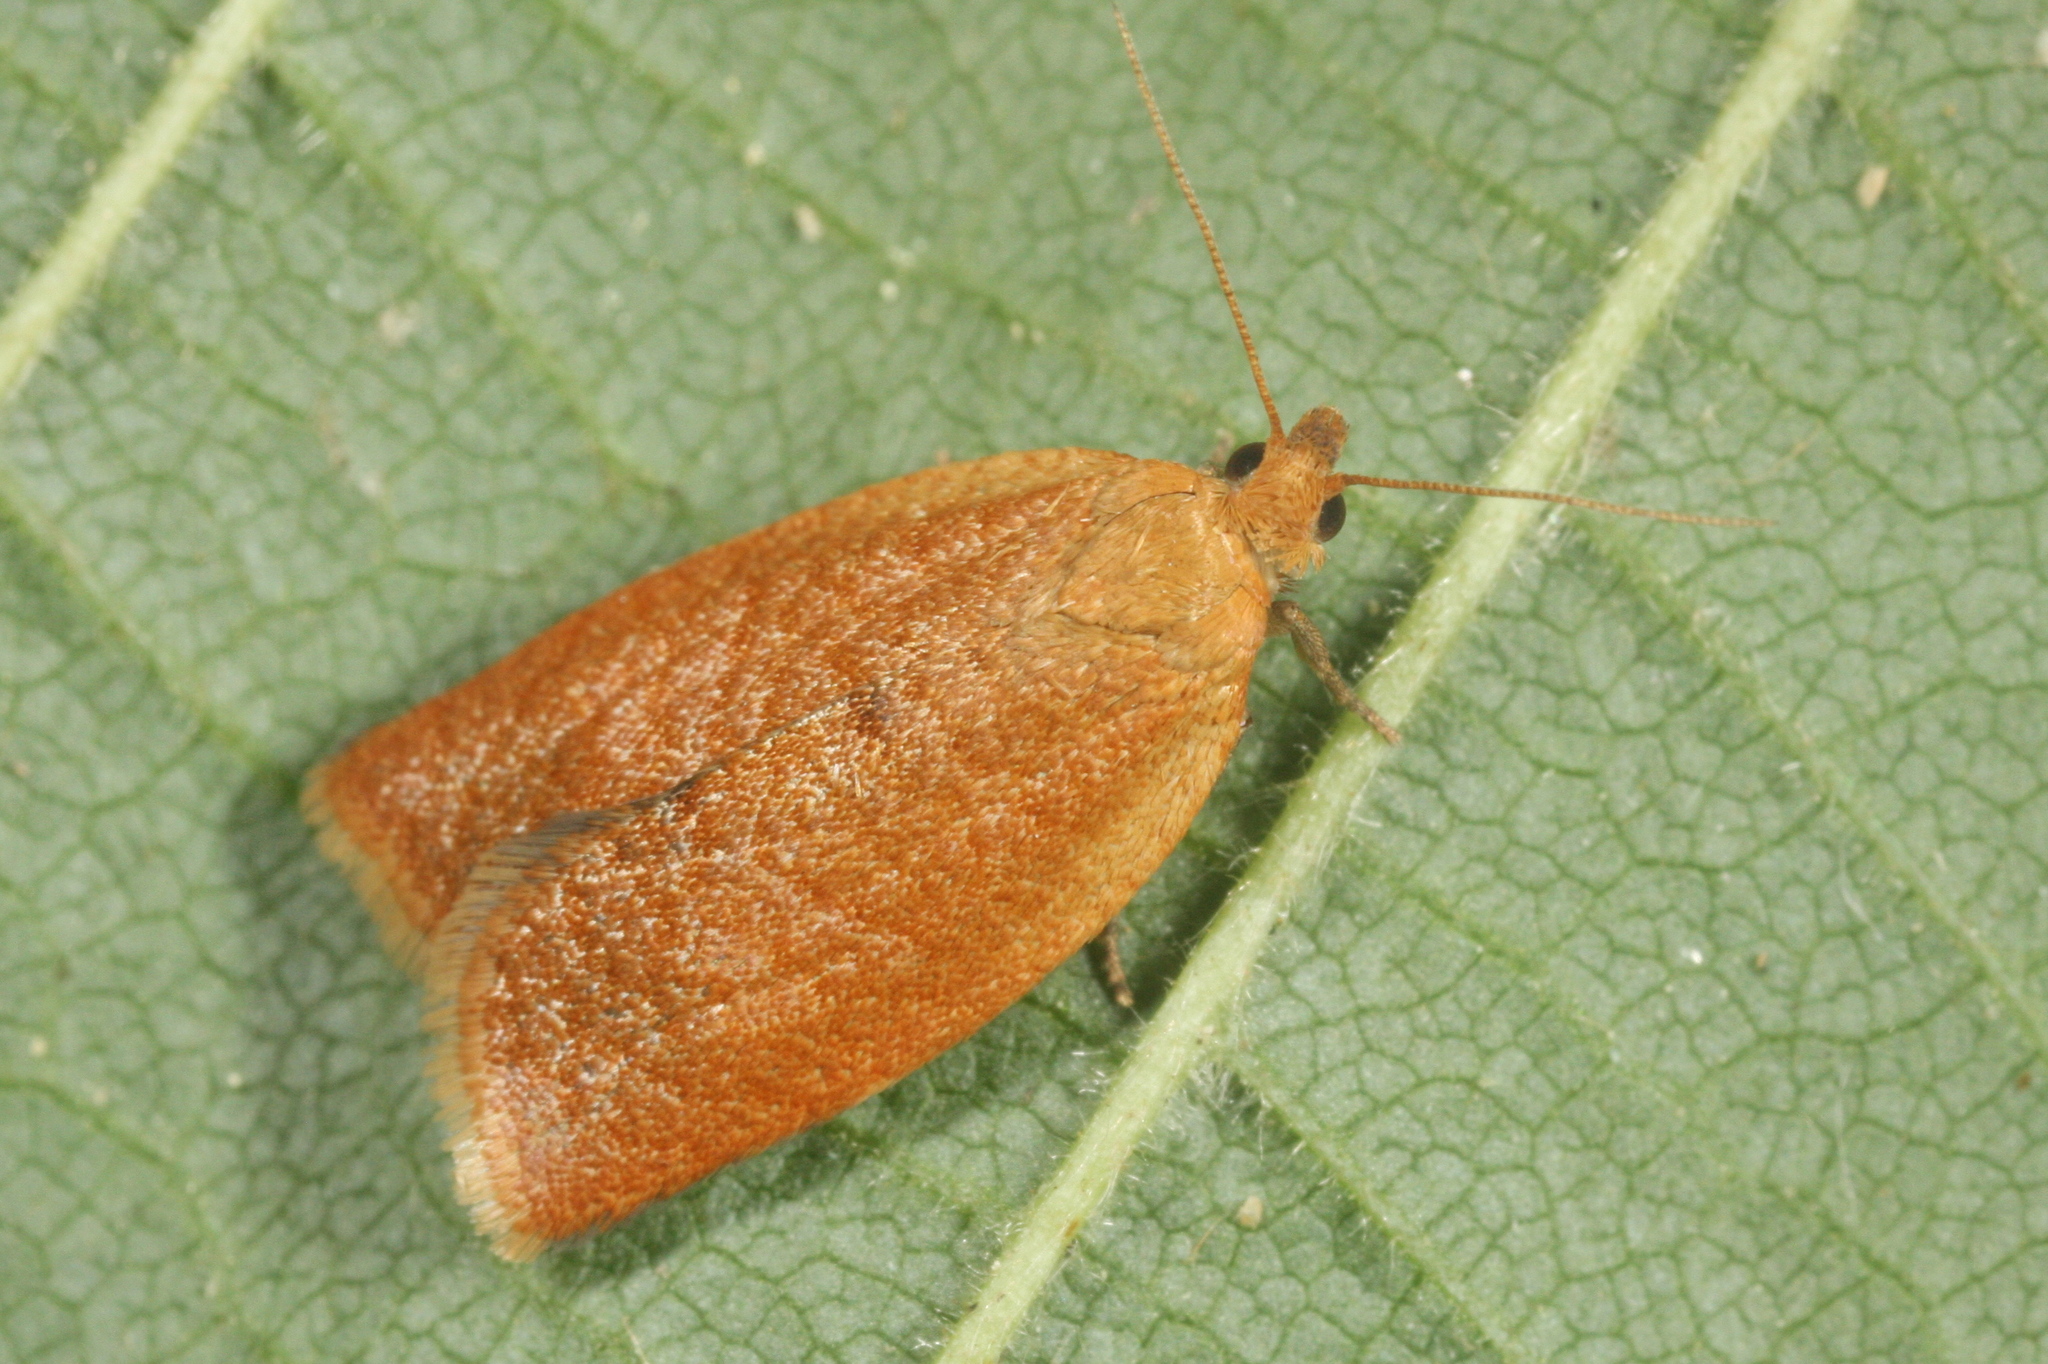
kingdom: Animalia
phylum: Arthropoda
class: Insecta
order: Lepidoptera
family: Tortricidae
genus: Clepsis
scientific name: Clepsis consimilana
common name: Privet tortrix
